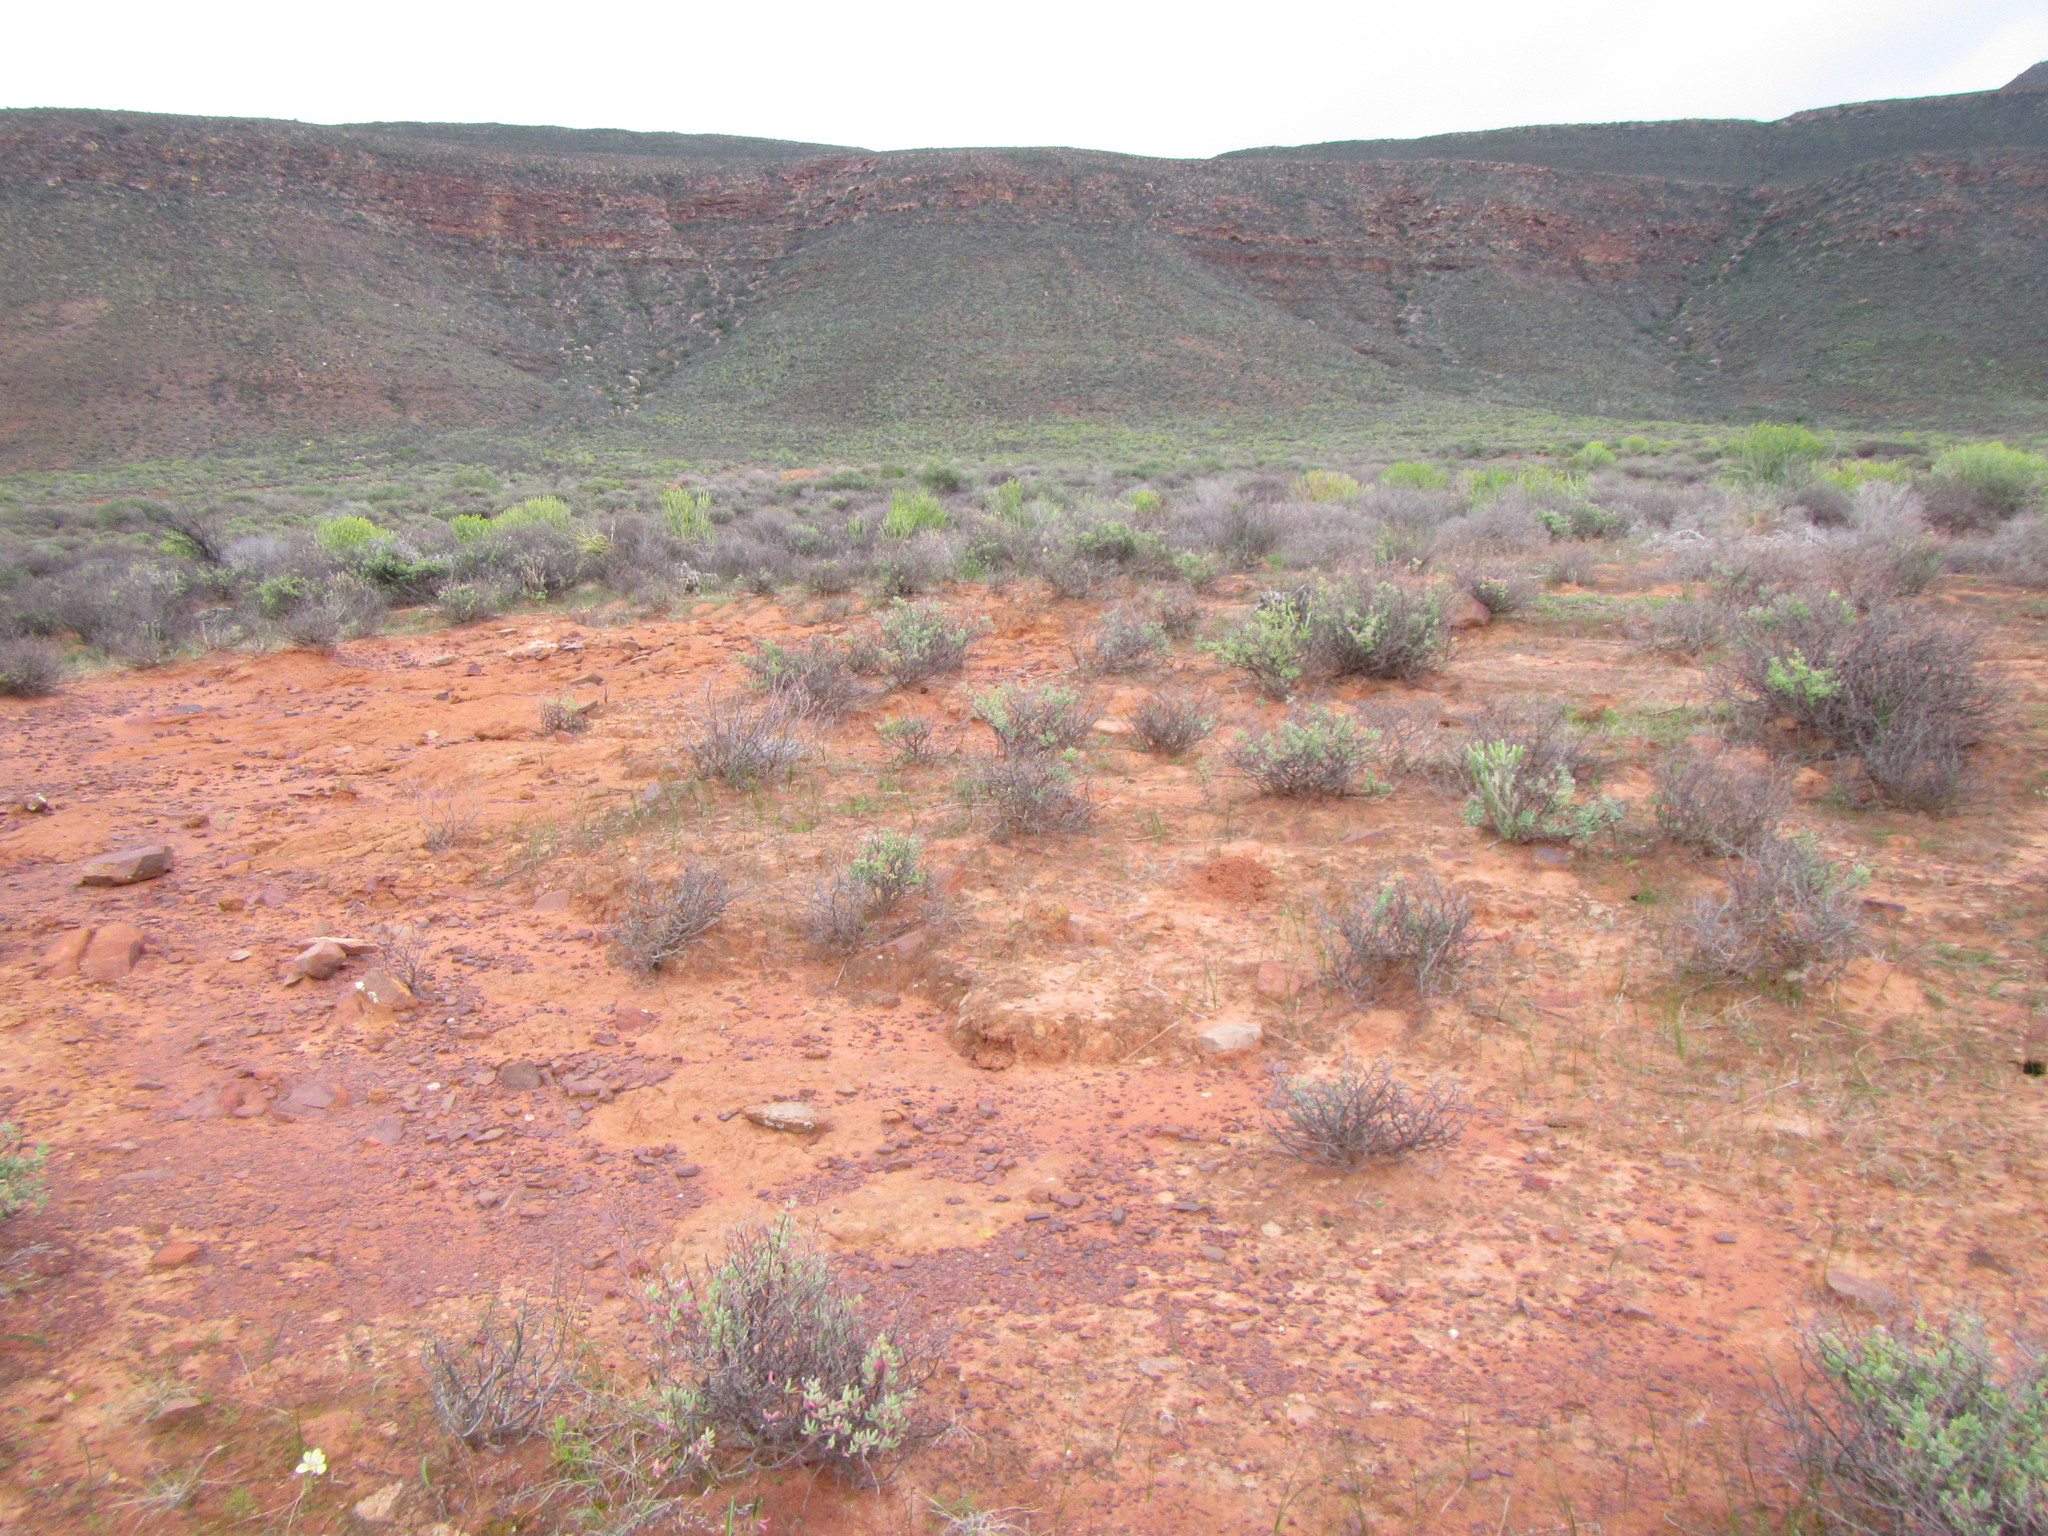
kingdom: Plantae
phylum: Tracheophyta
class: Liliopsida
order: Asparagales
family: Iridaceae
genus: Moraea
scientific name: Moraea vallisbelli
